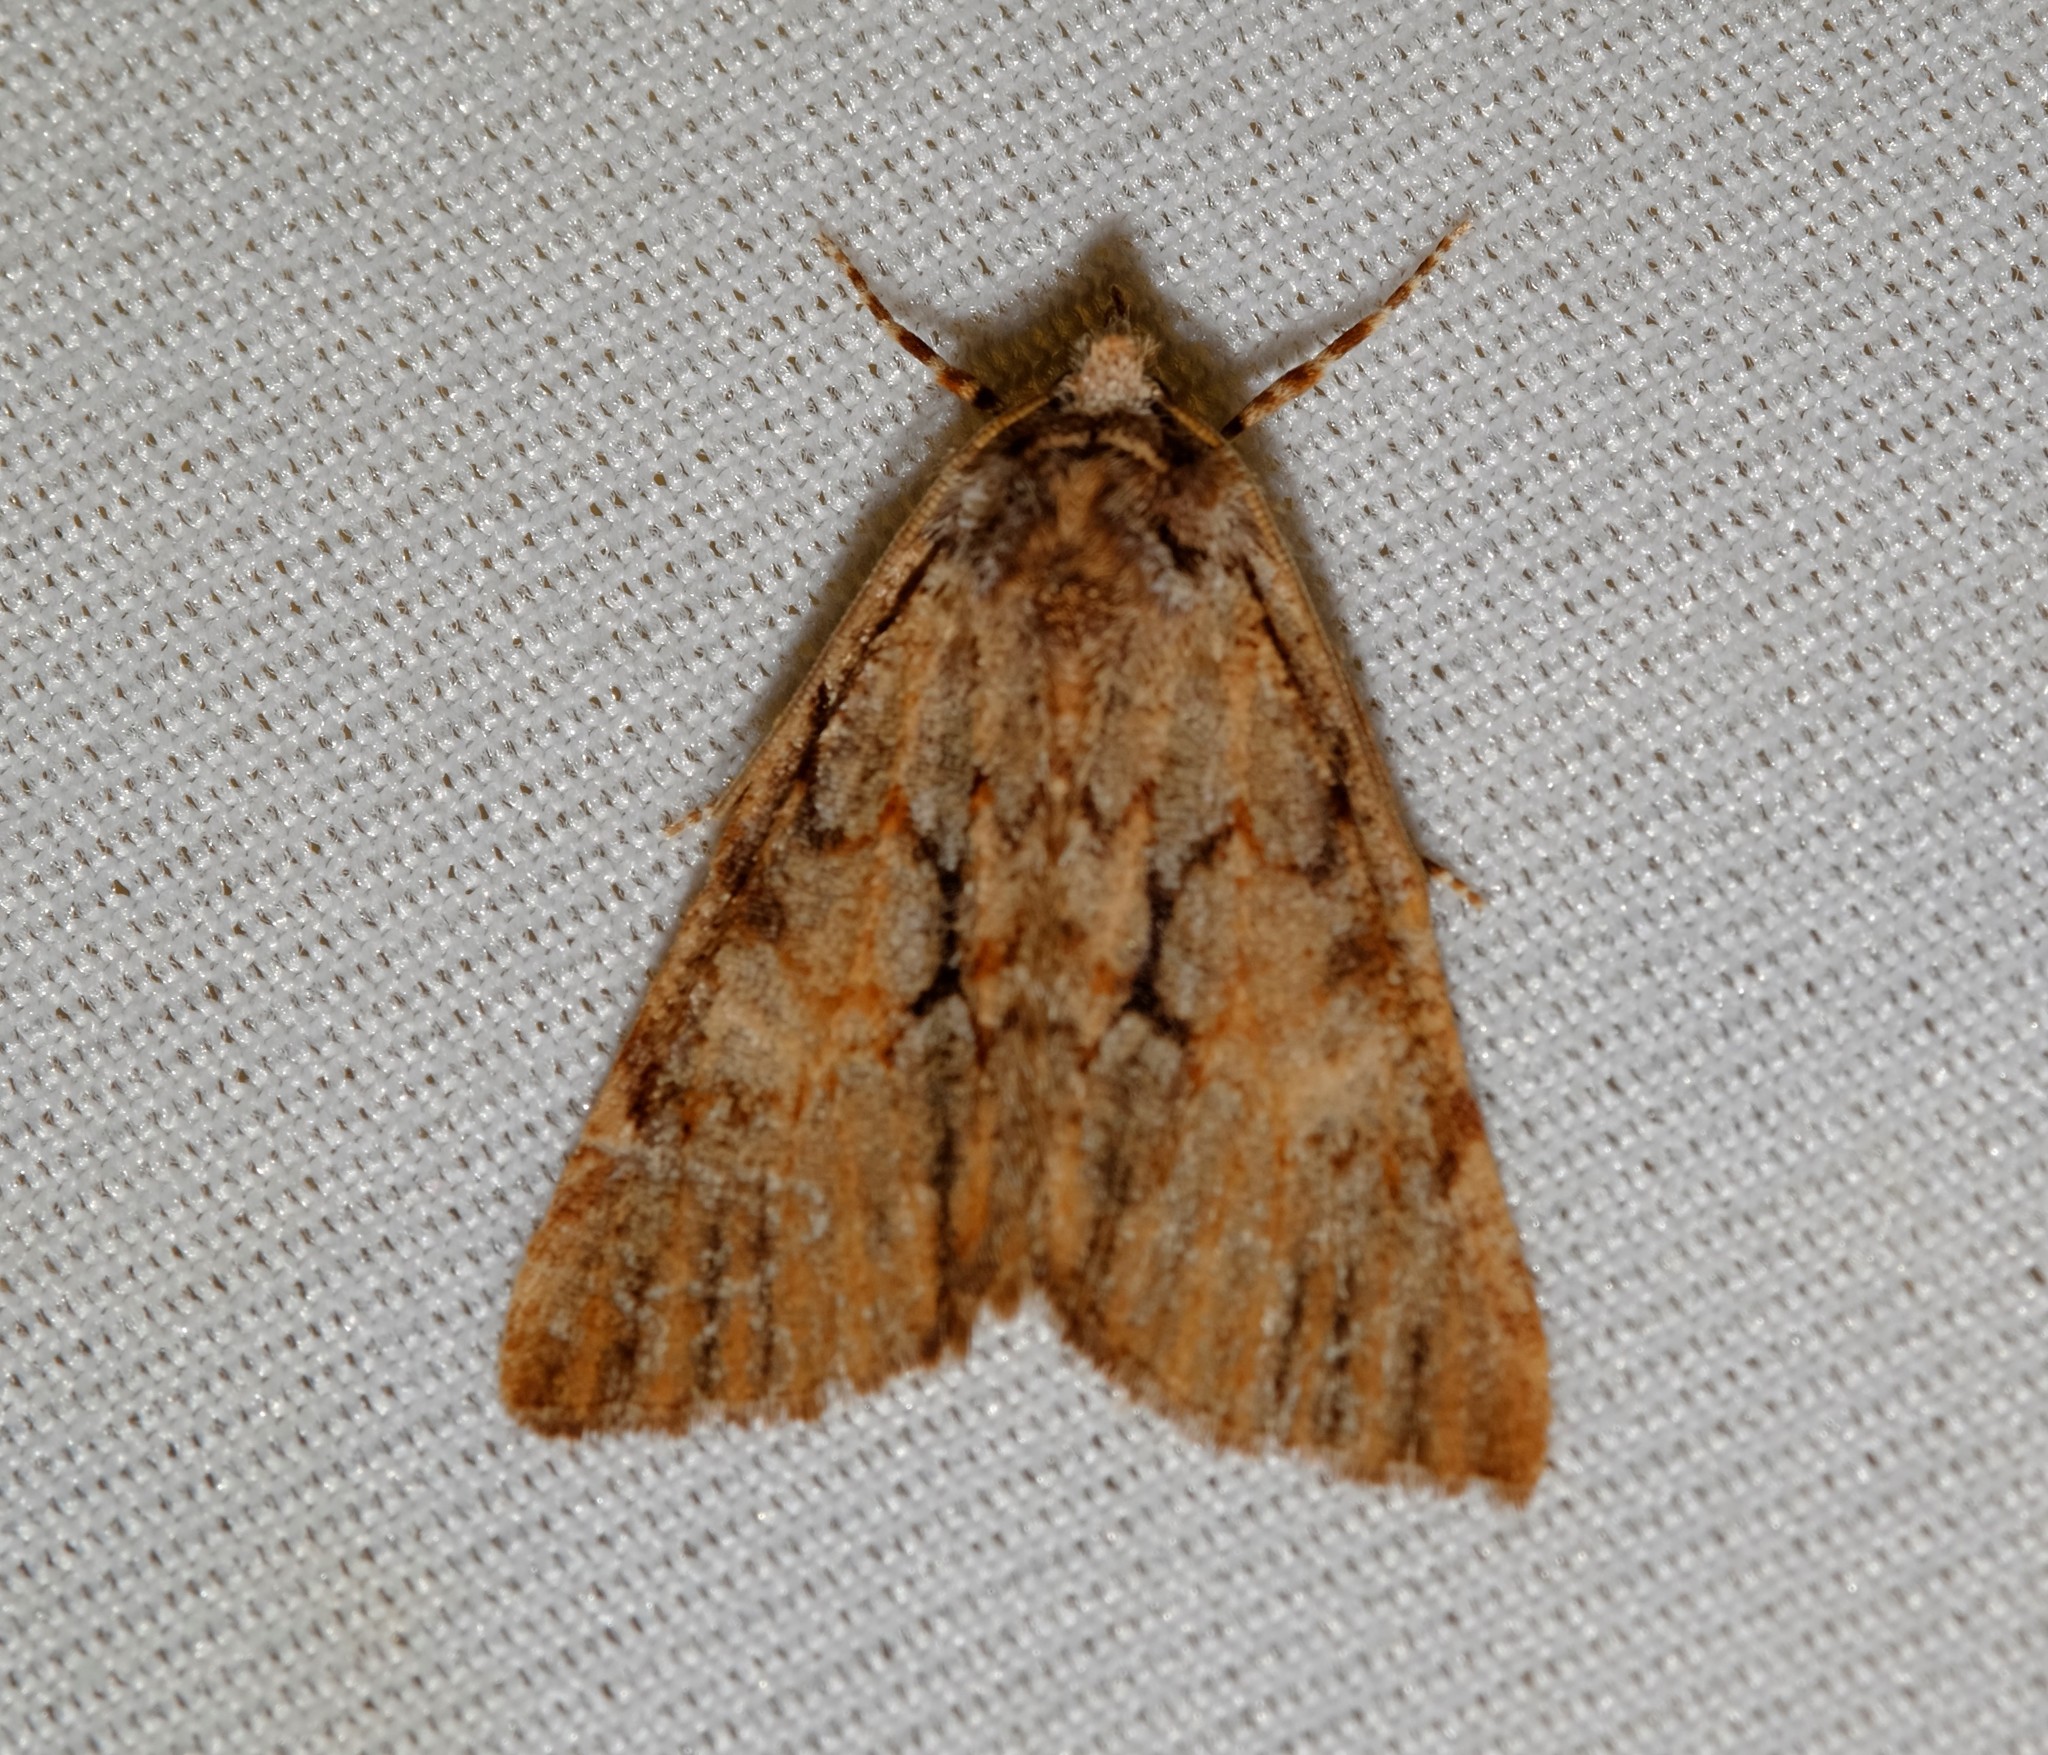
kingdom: Animalia
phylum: Arthropoda
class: Insecta
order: Lepidoptera
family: Geometridae
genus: Smyriodes
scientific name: Smyriodes
